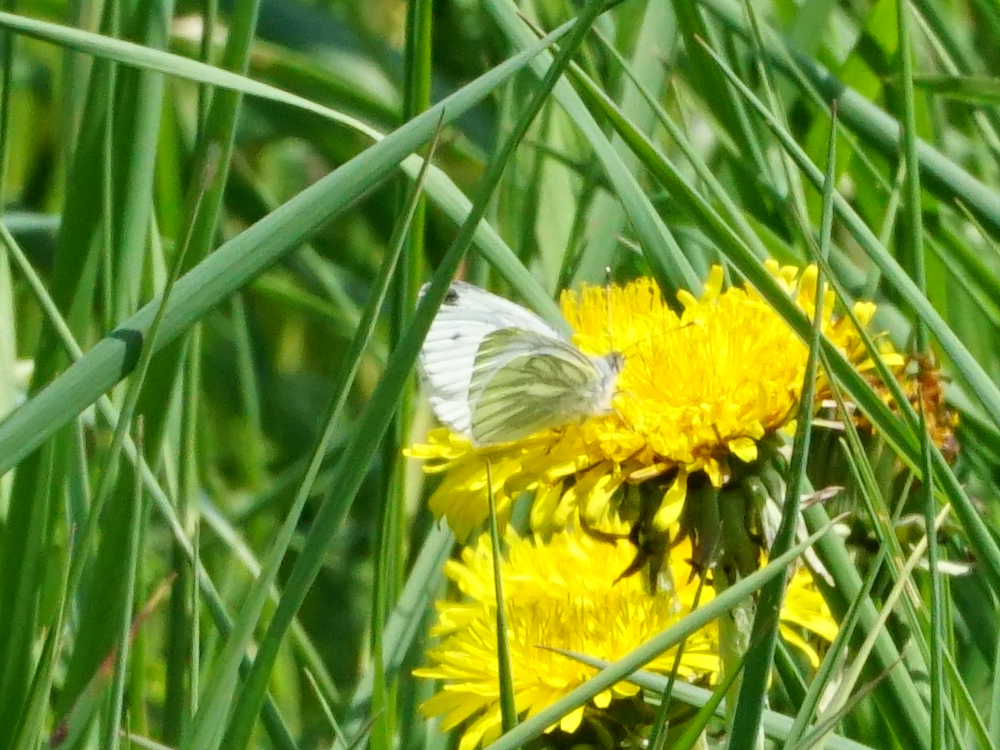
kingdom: Animalia
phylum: Arthropoda
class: Insecta
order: Lepidoptera
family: Pieridae
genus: Pieris
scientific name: Pieris napi
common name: Green-veined white
